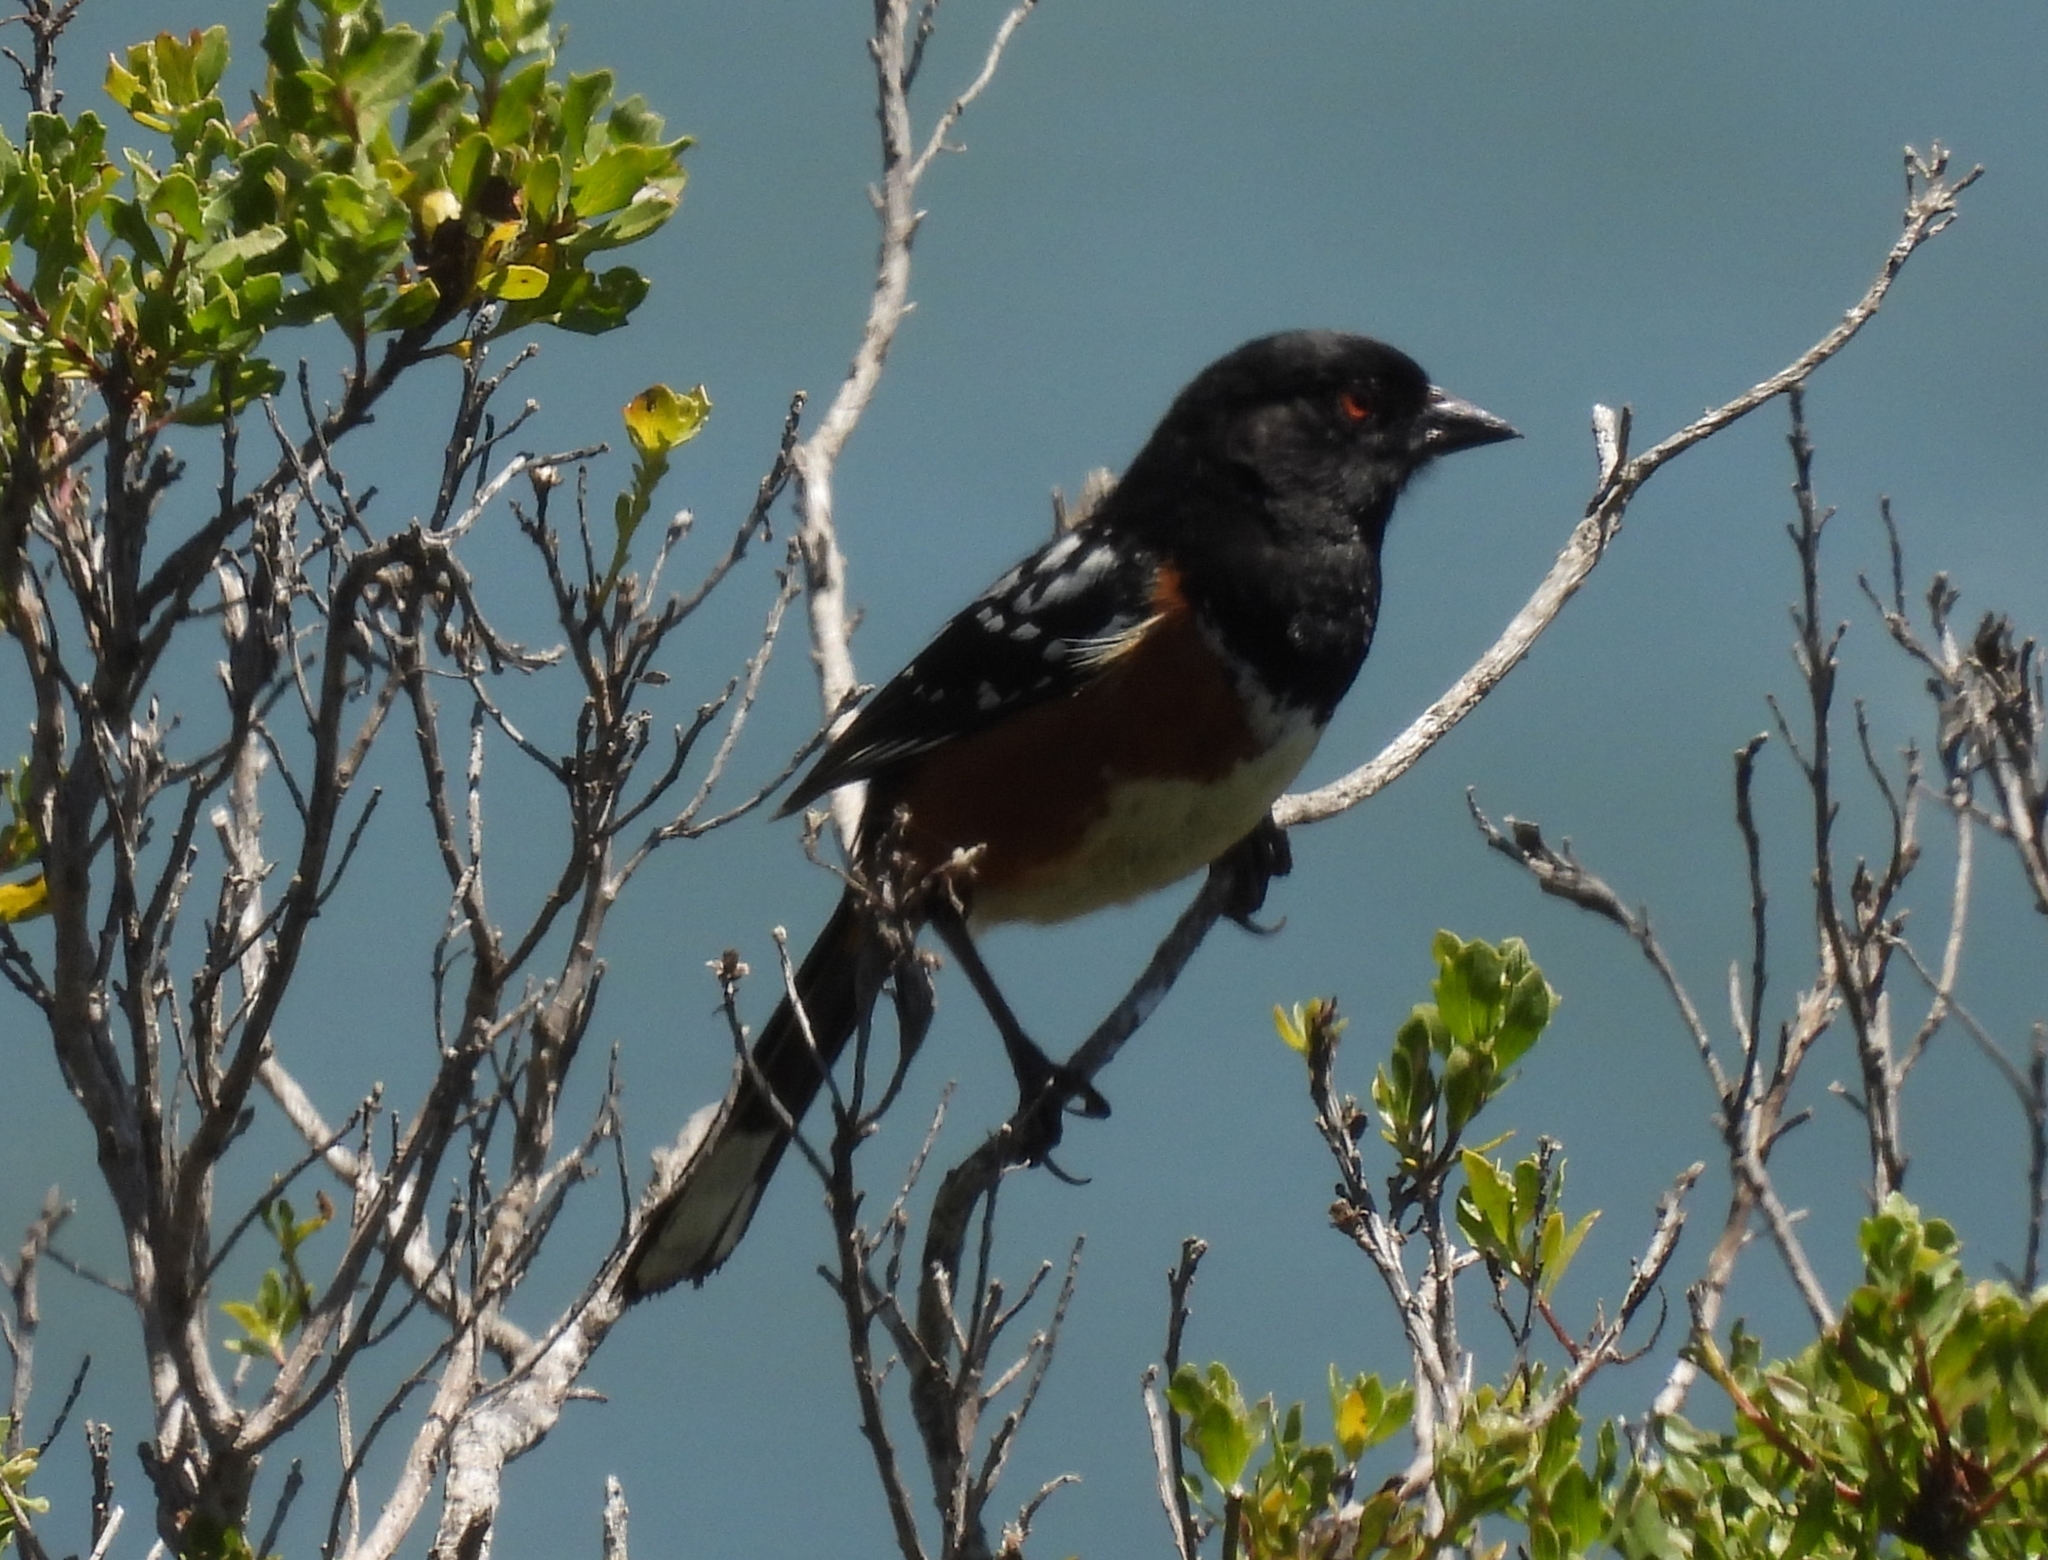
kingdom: Animalia
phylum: Chordata
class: Aves
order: Passeriformes
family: Passerellidae
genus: Pipilo
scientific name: Pipilo maculatus
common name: Spotted towhee
